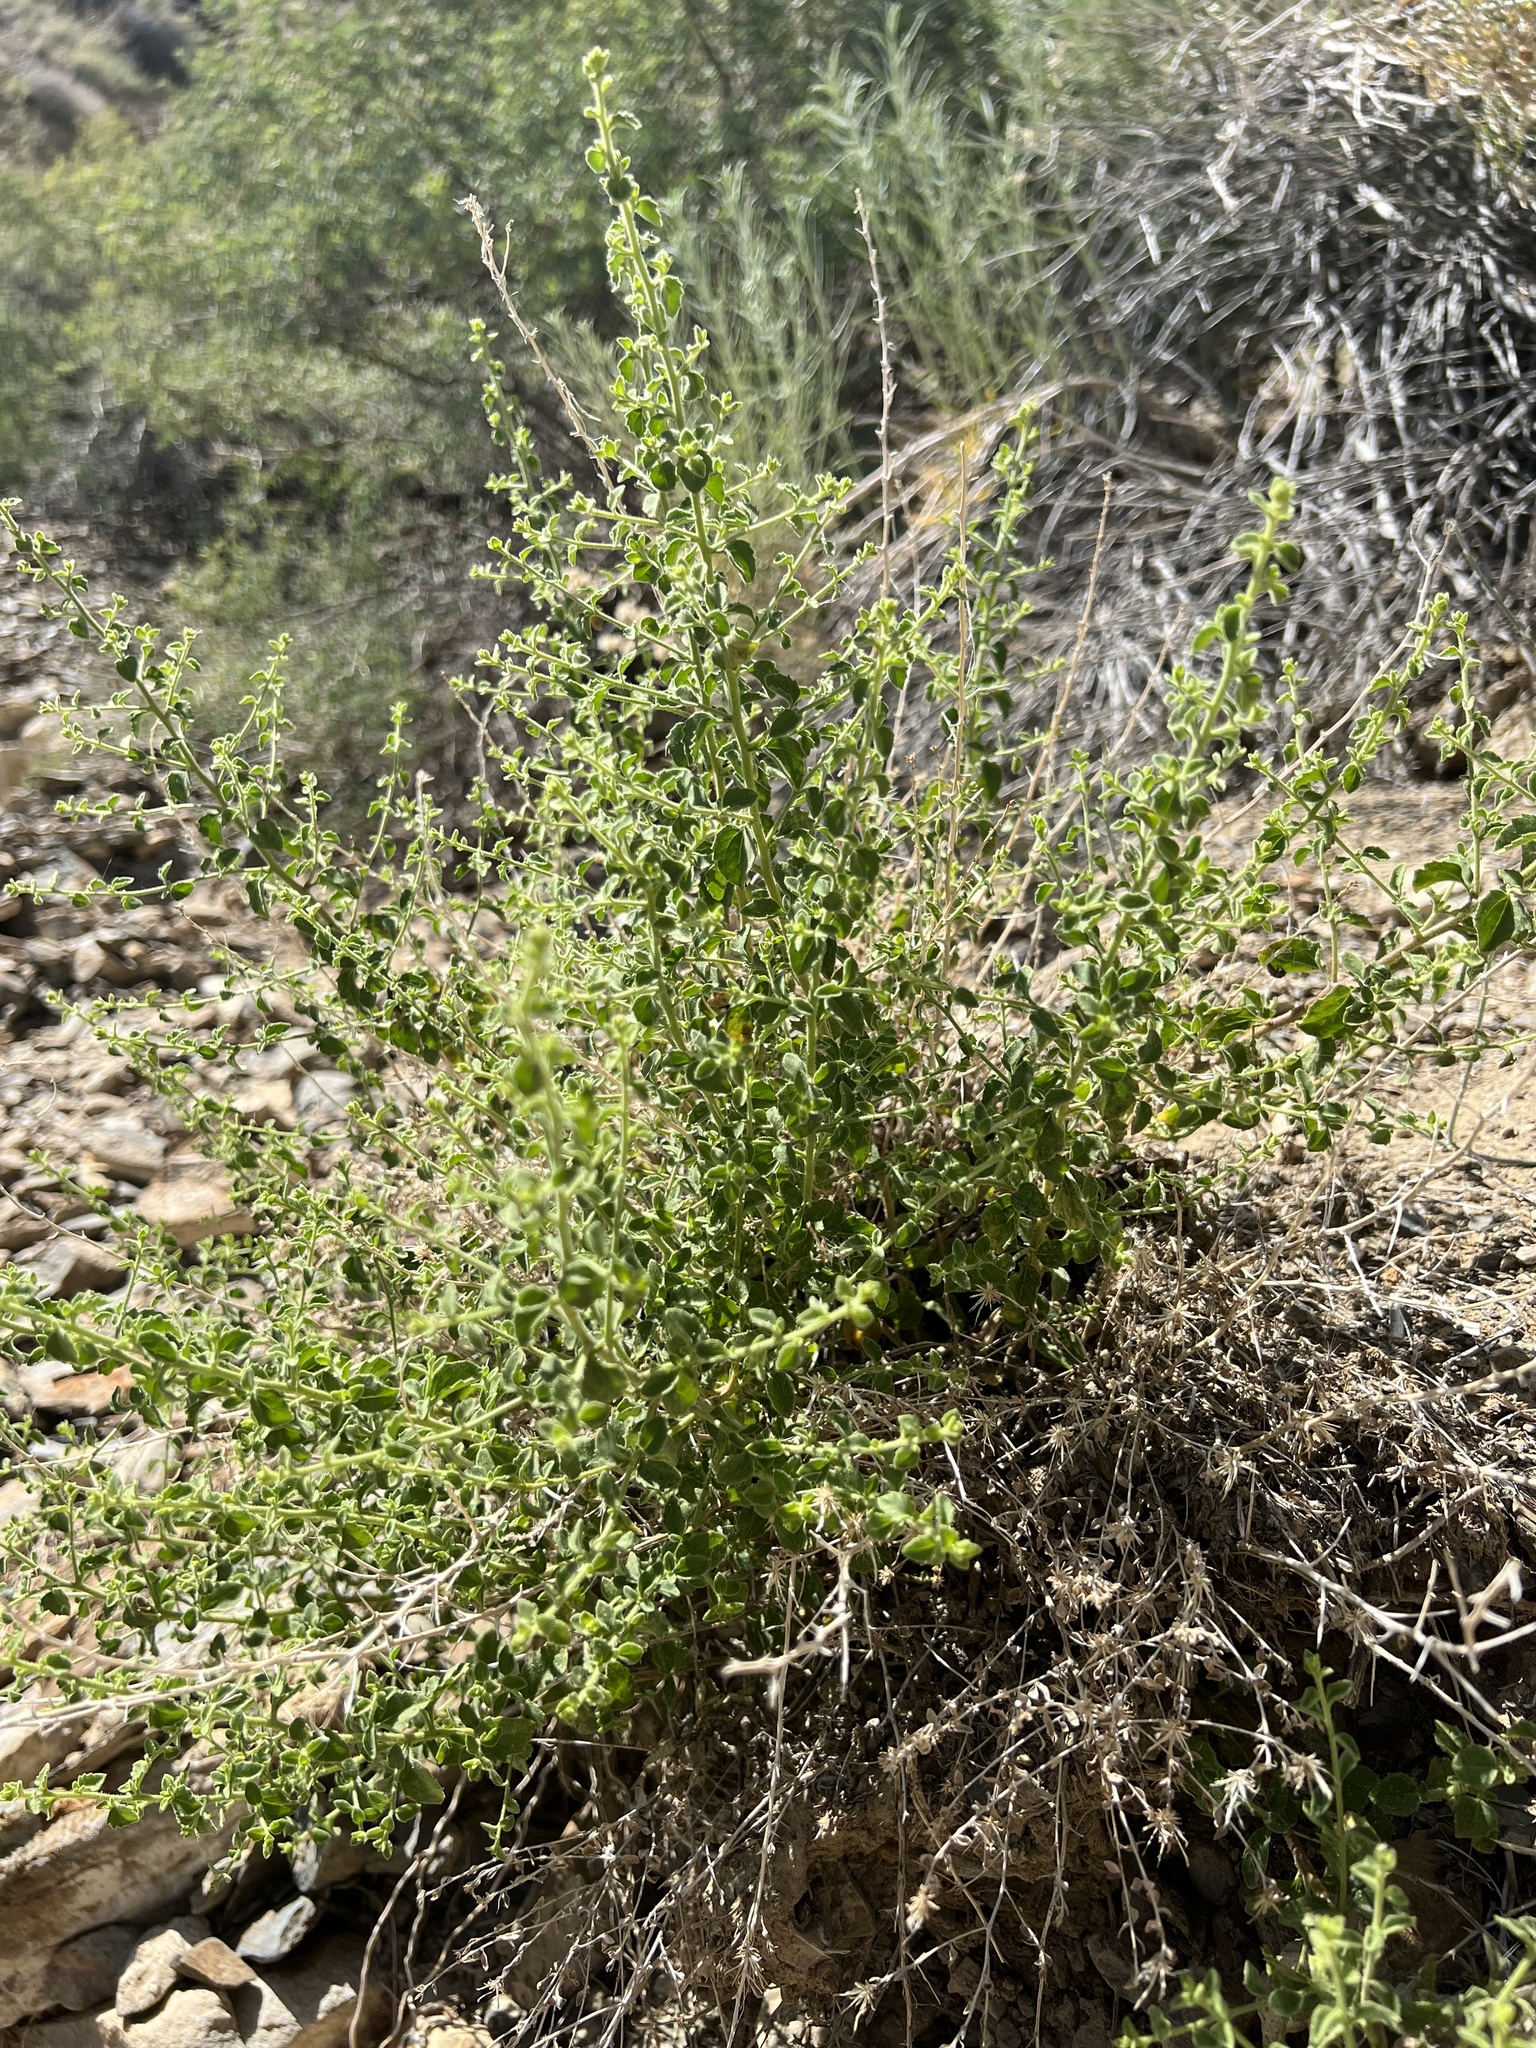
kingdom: Plantae
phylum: Tracheophyta
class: Magnoliopsida
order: Asterales
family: Asteraceae
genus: Brickellia
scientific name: Brickellia microphylla
